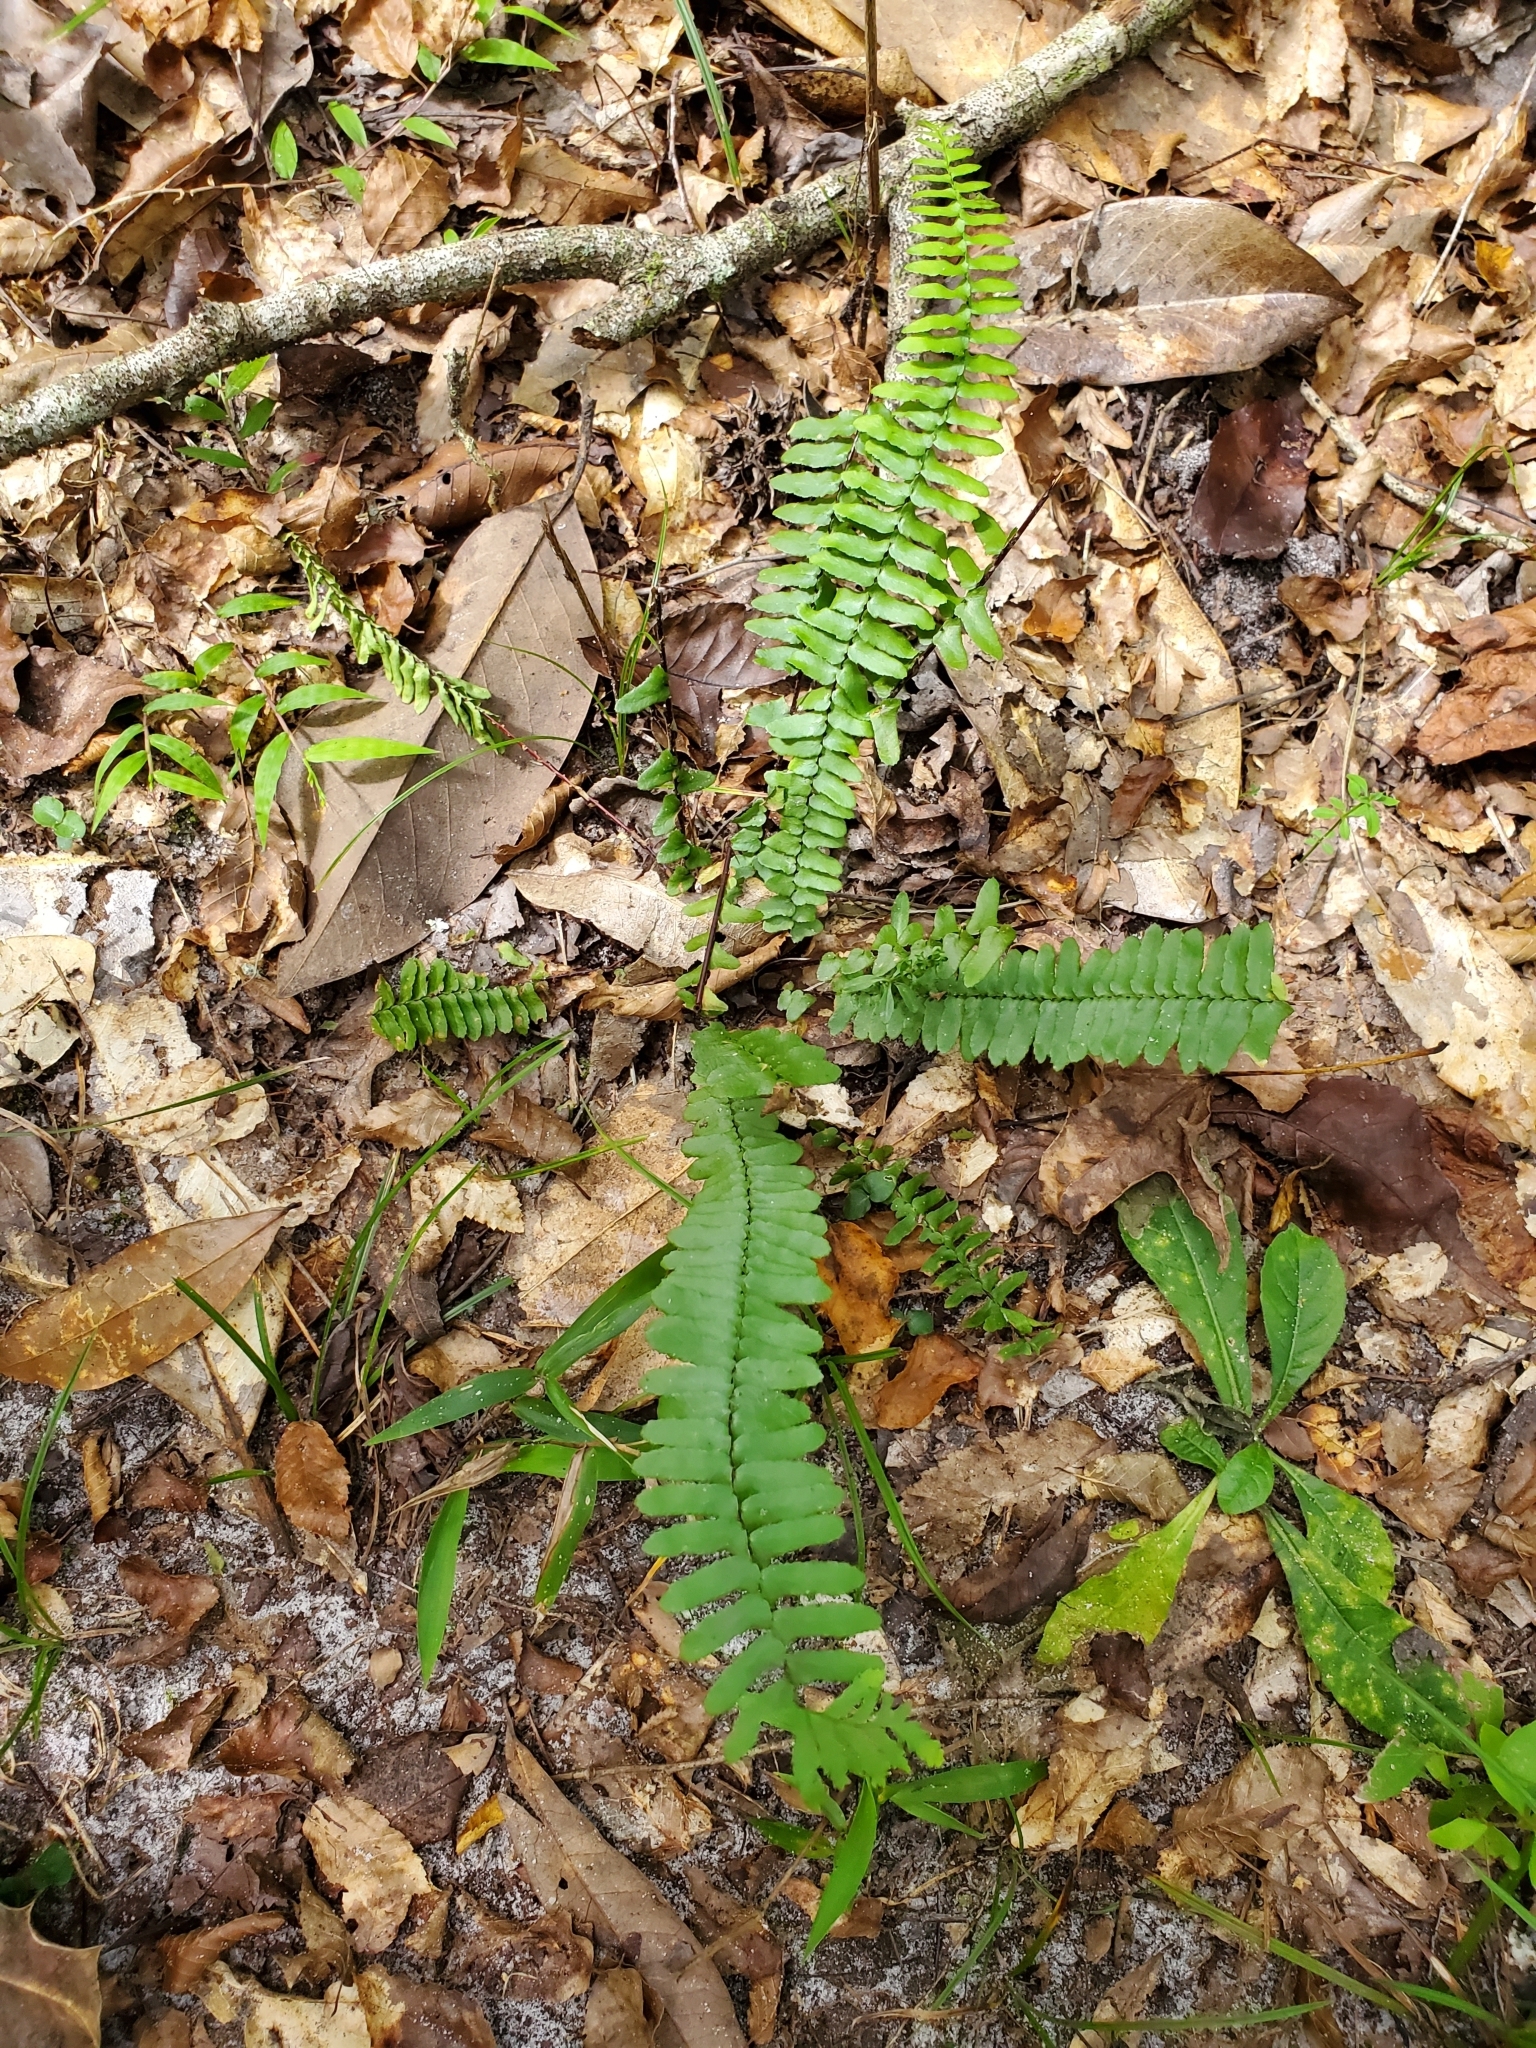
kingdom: Plantae
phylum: Tracheophyta
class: Polypodiopsida
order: Polypodiales
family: Aspleniaceae
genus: Asplenium
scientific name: Asplenium platyneuron
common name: Ebony spleenwort
